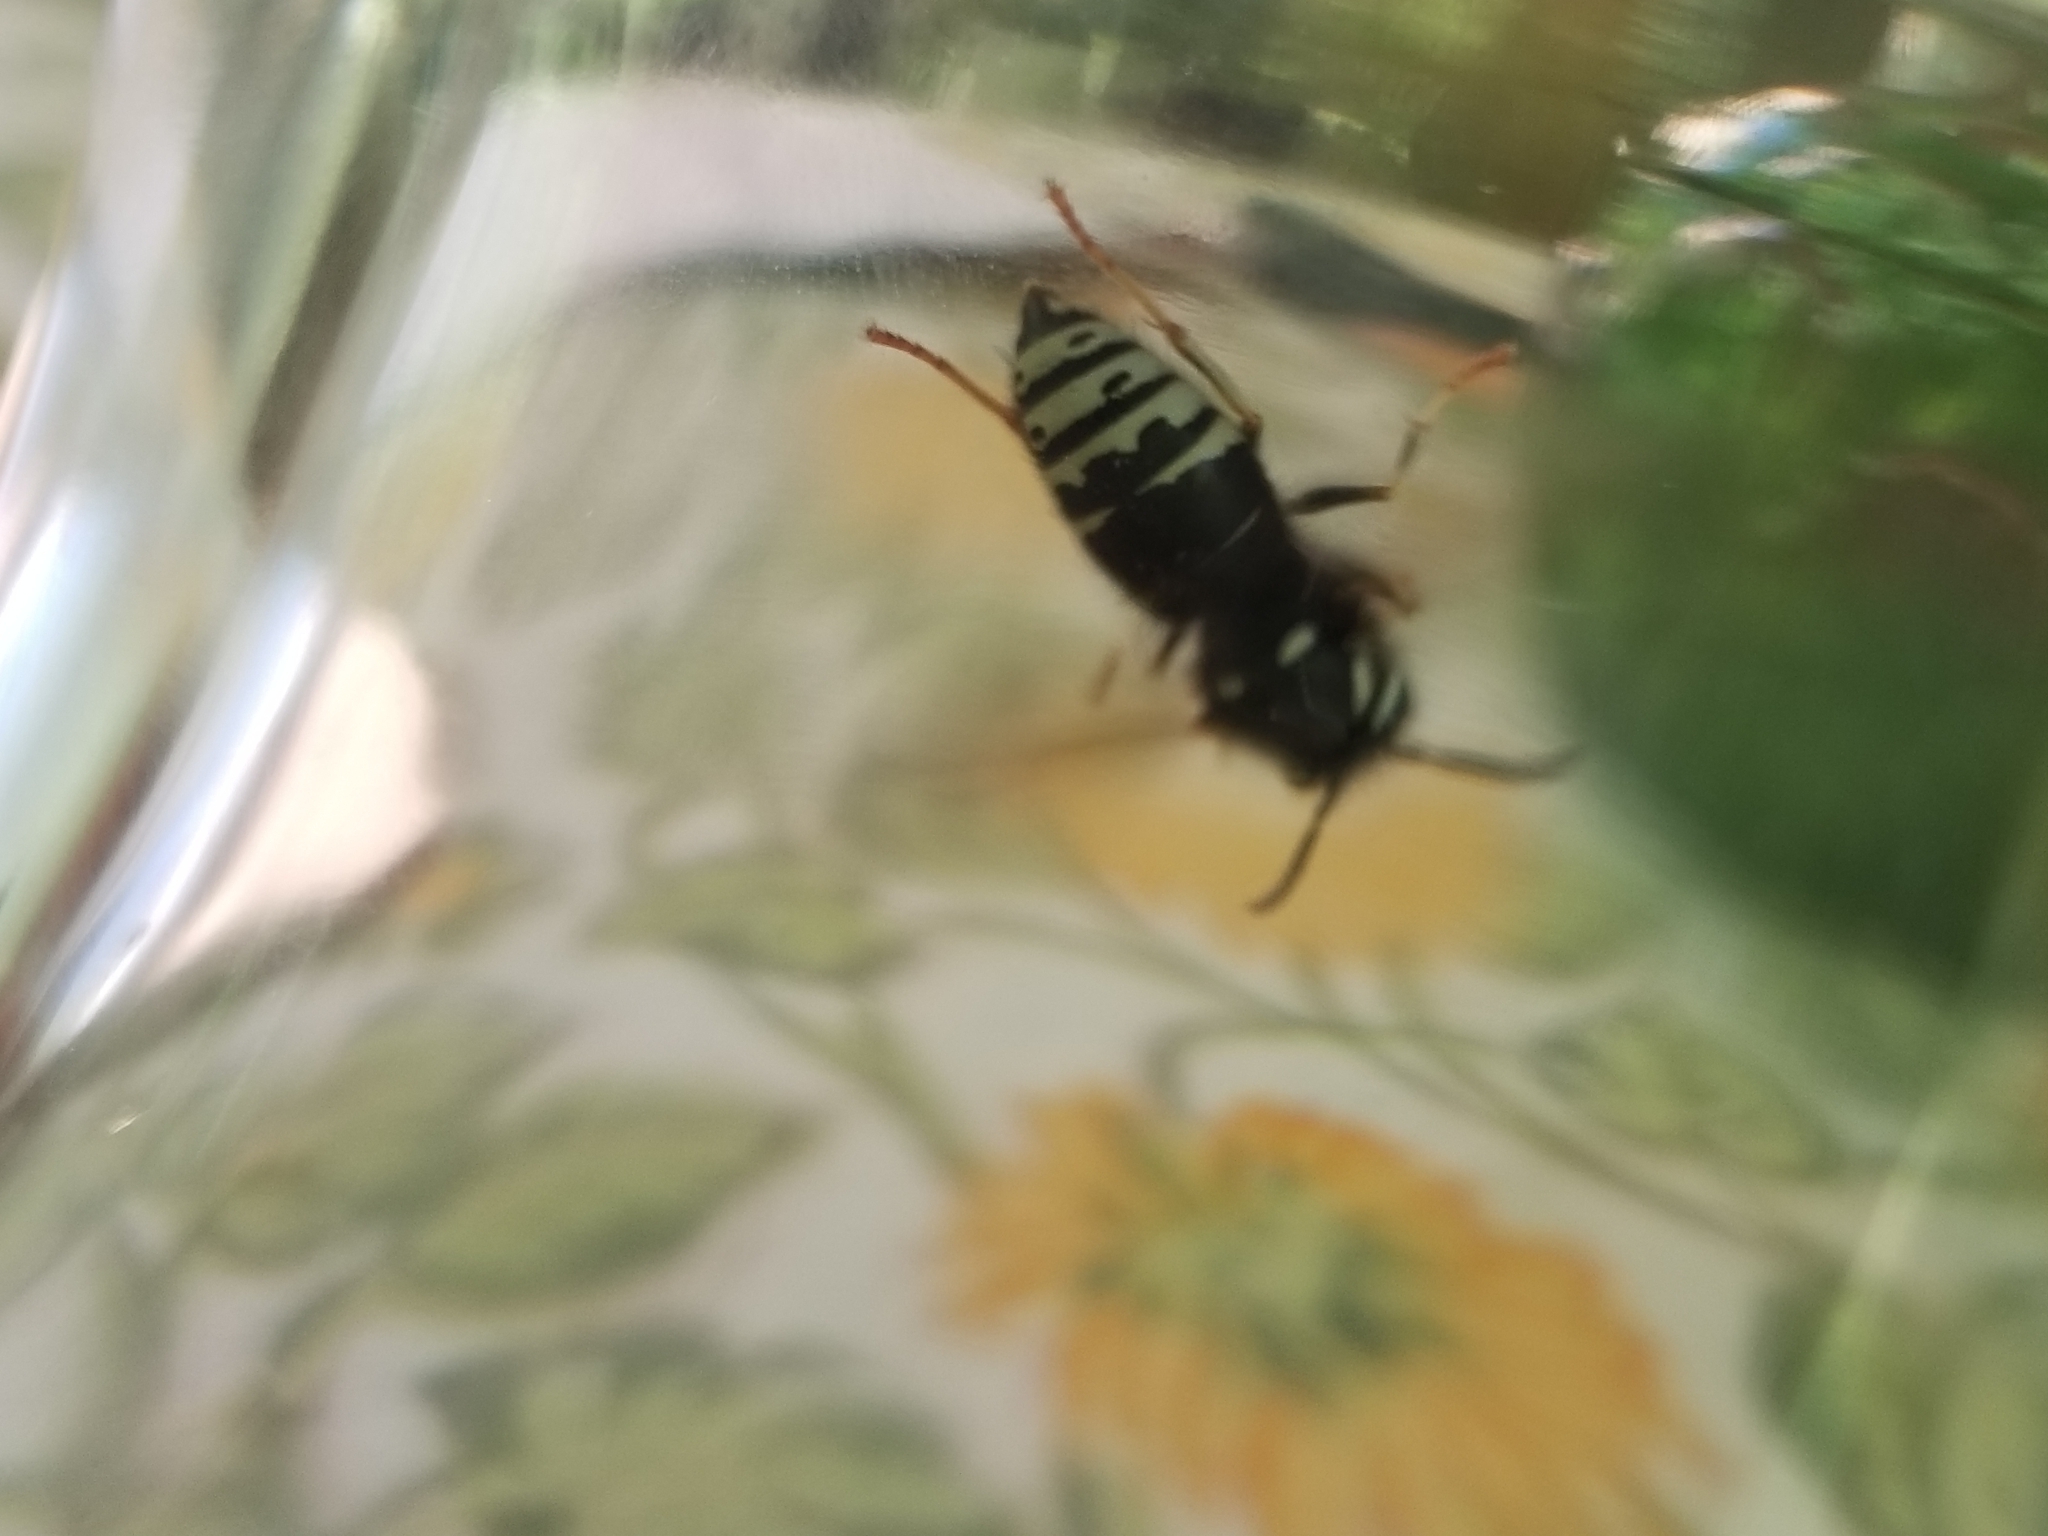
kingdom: Animalia
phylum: Arthropoda
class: Insecta
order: Hymenoptera
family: Vespidae
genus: Vespula
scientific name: Vespula consobrina
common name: Blackjacket
